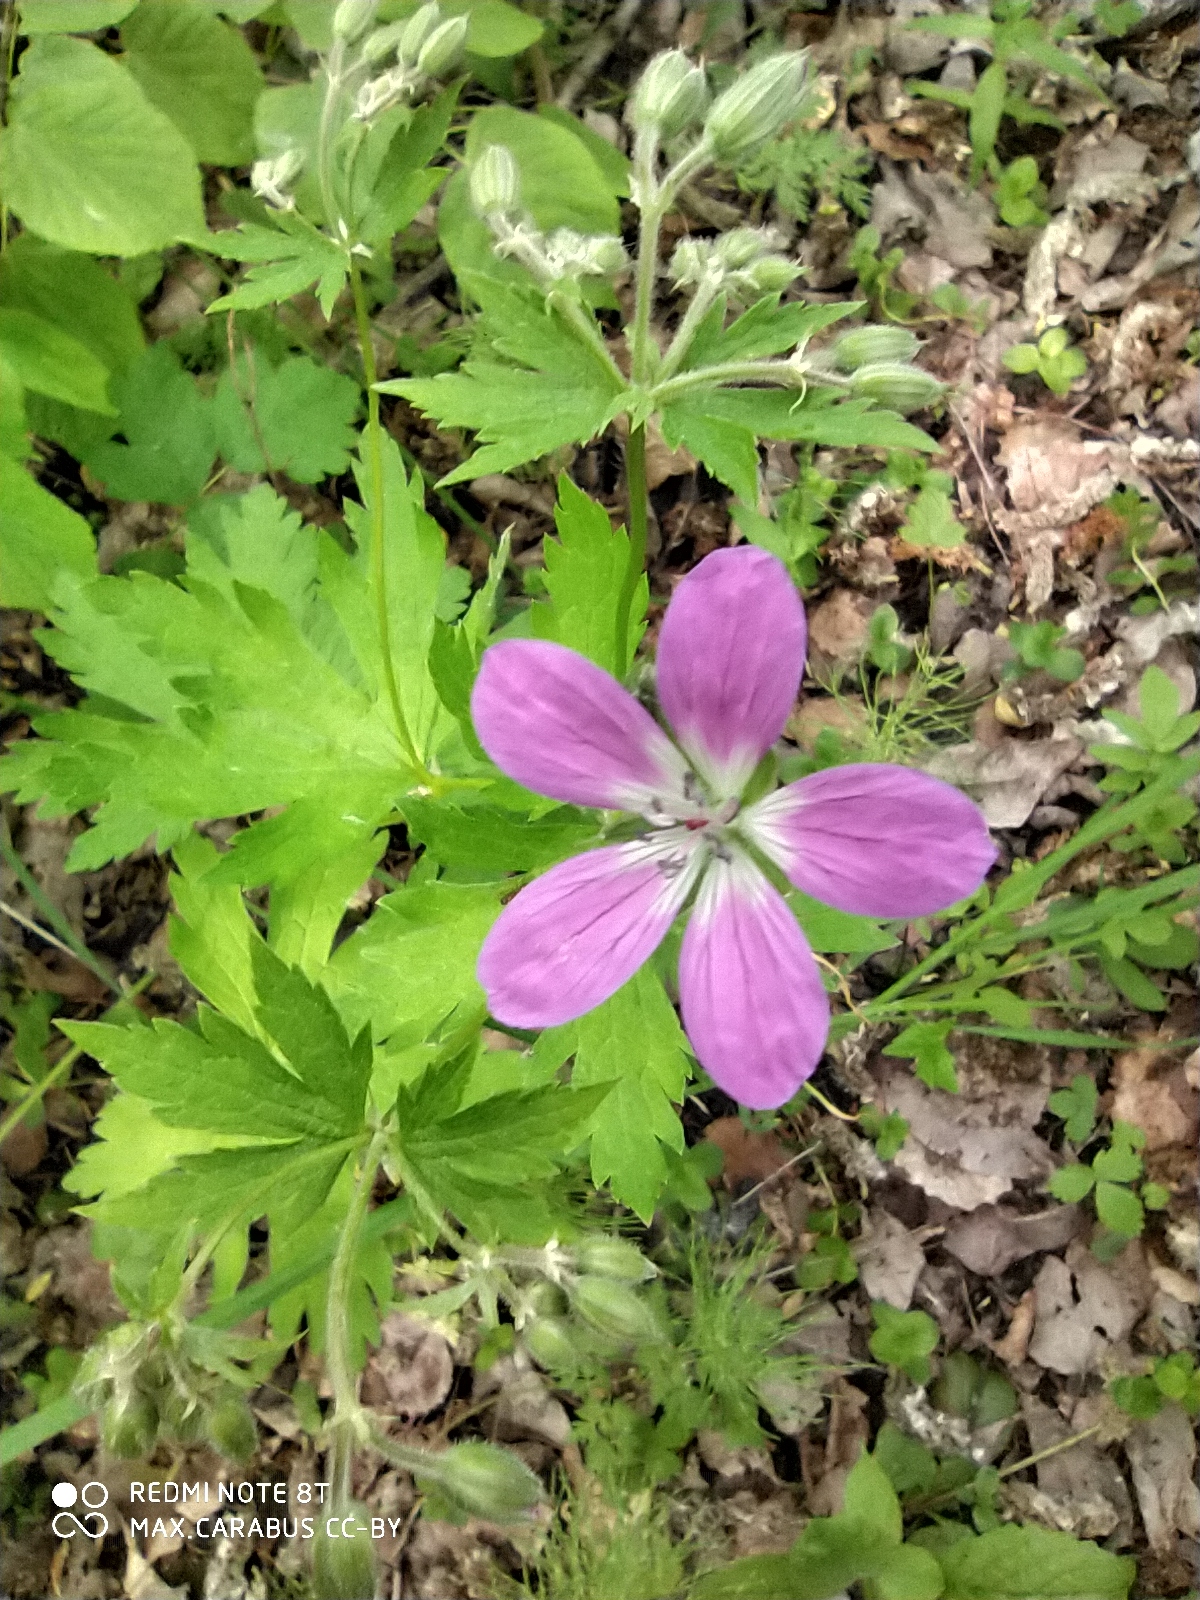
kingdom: Plantae
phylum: Tracheophyta
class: Magnoliopsida
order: Geraniales
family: Geraniaceae
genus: Geranium
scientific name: Geranium sylvaticum
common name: Wood crane's-bill
